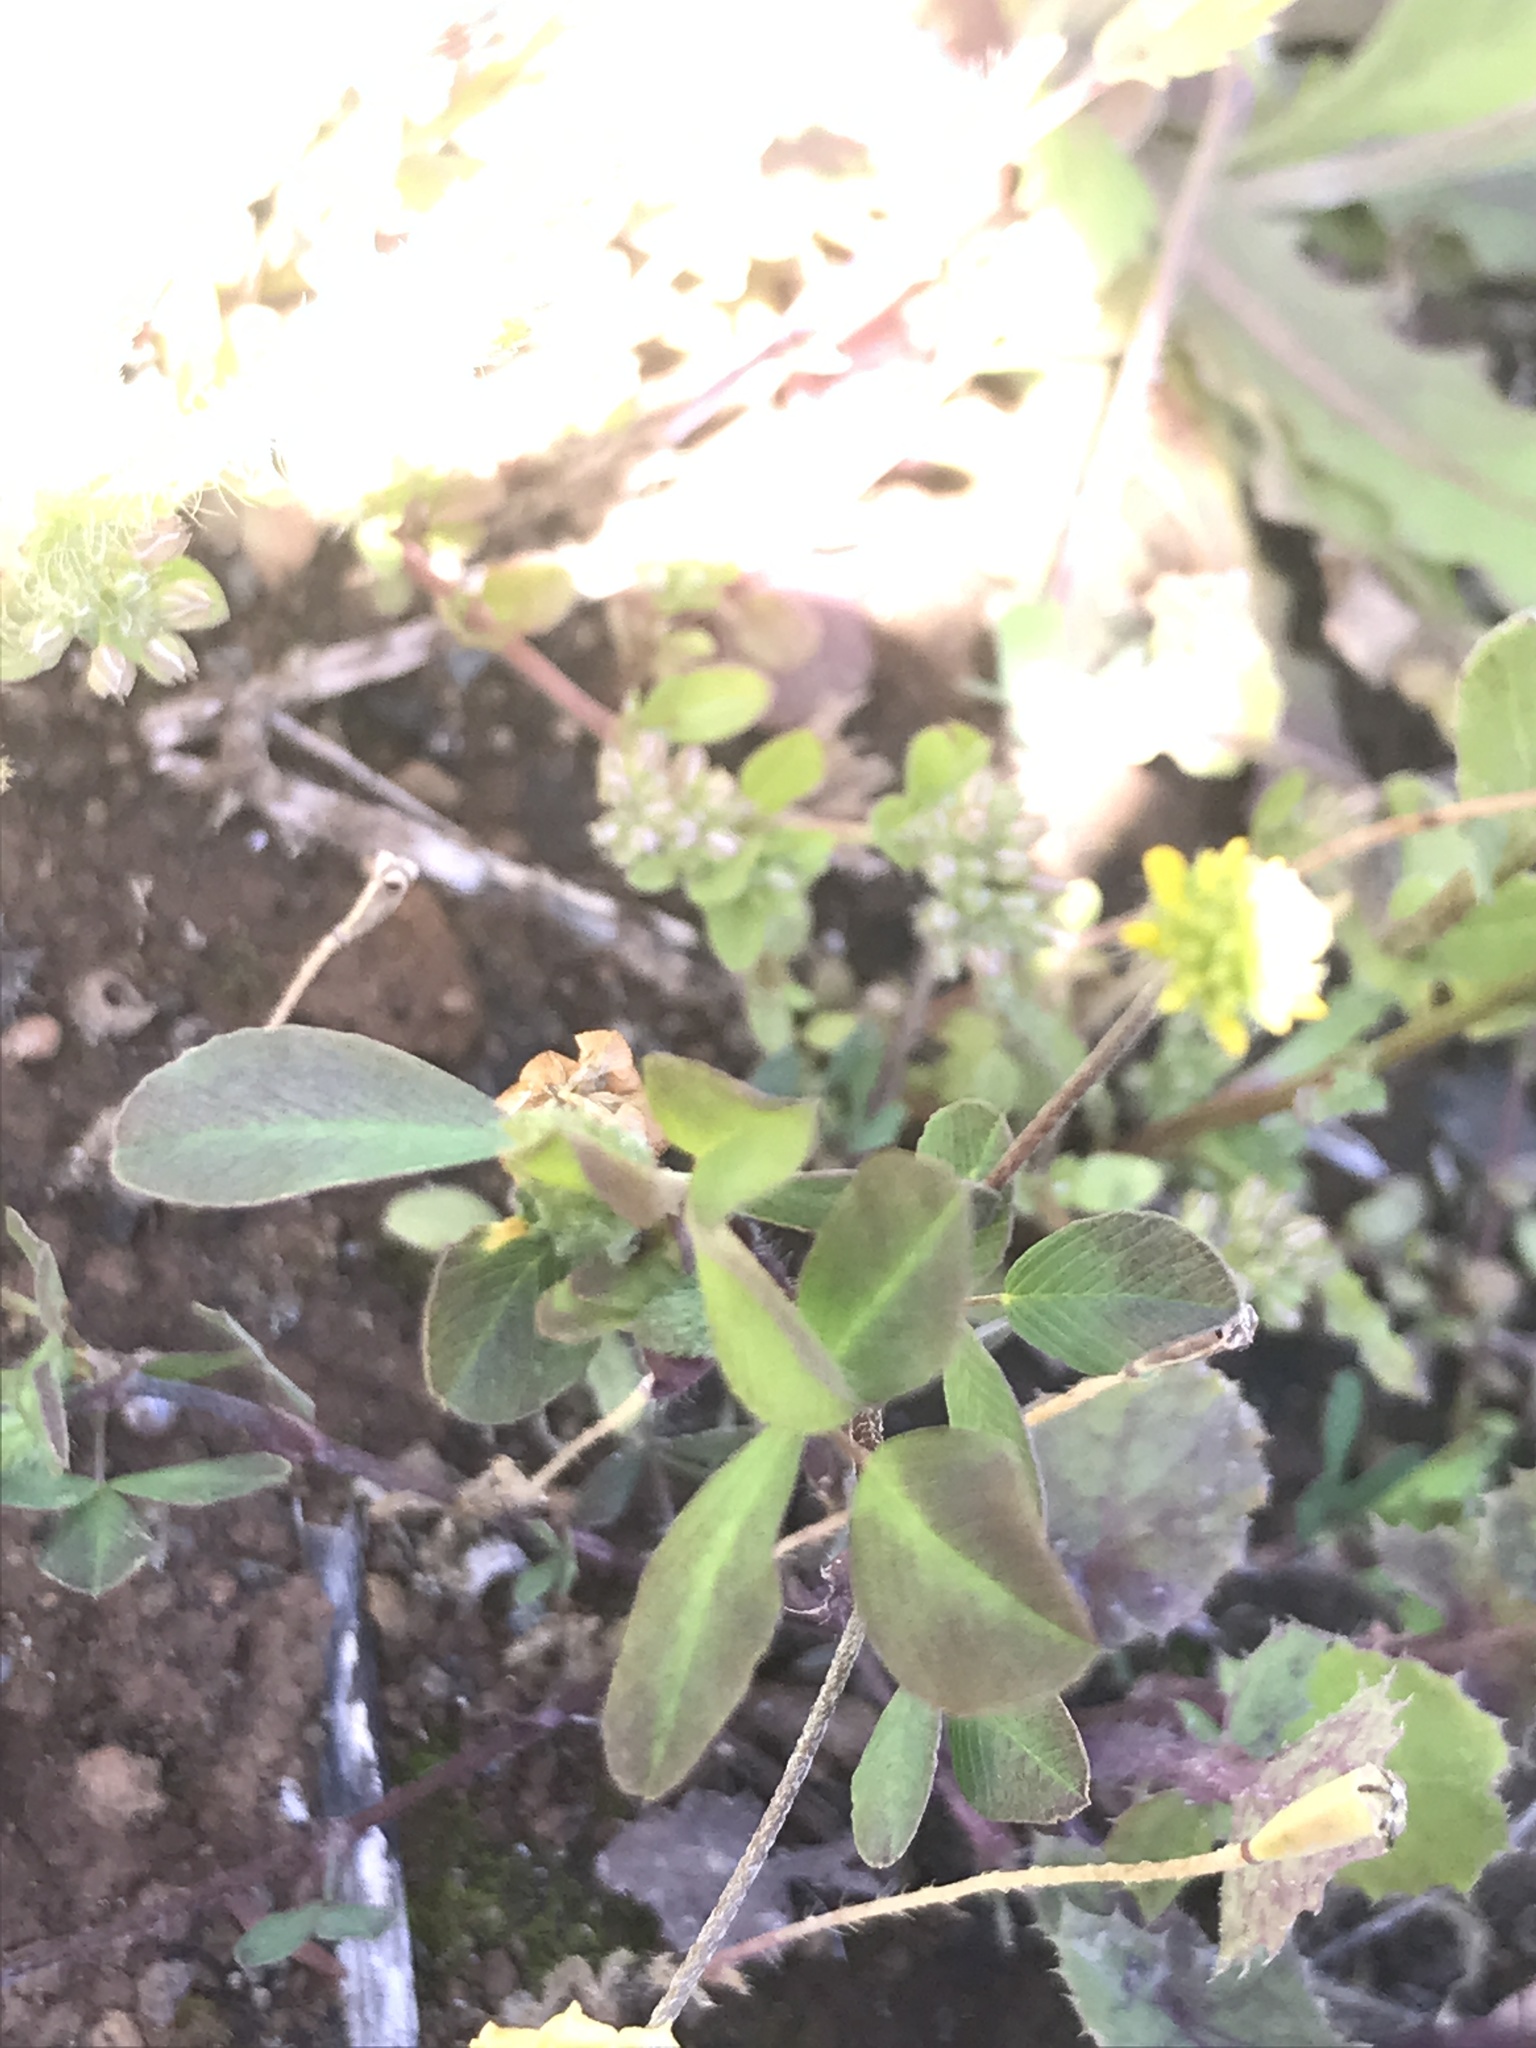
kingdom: Plantae
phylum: Tracheophyta
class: Magnoliopsida
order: Fabales
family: Fabaceae
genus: Trifolium
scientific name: Trifolium campestre
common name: Field clover
